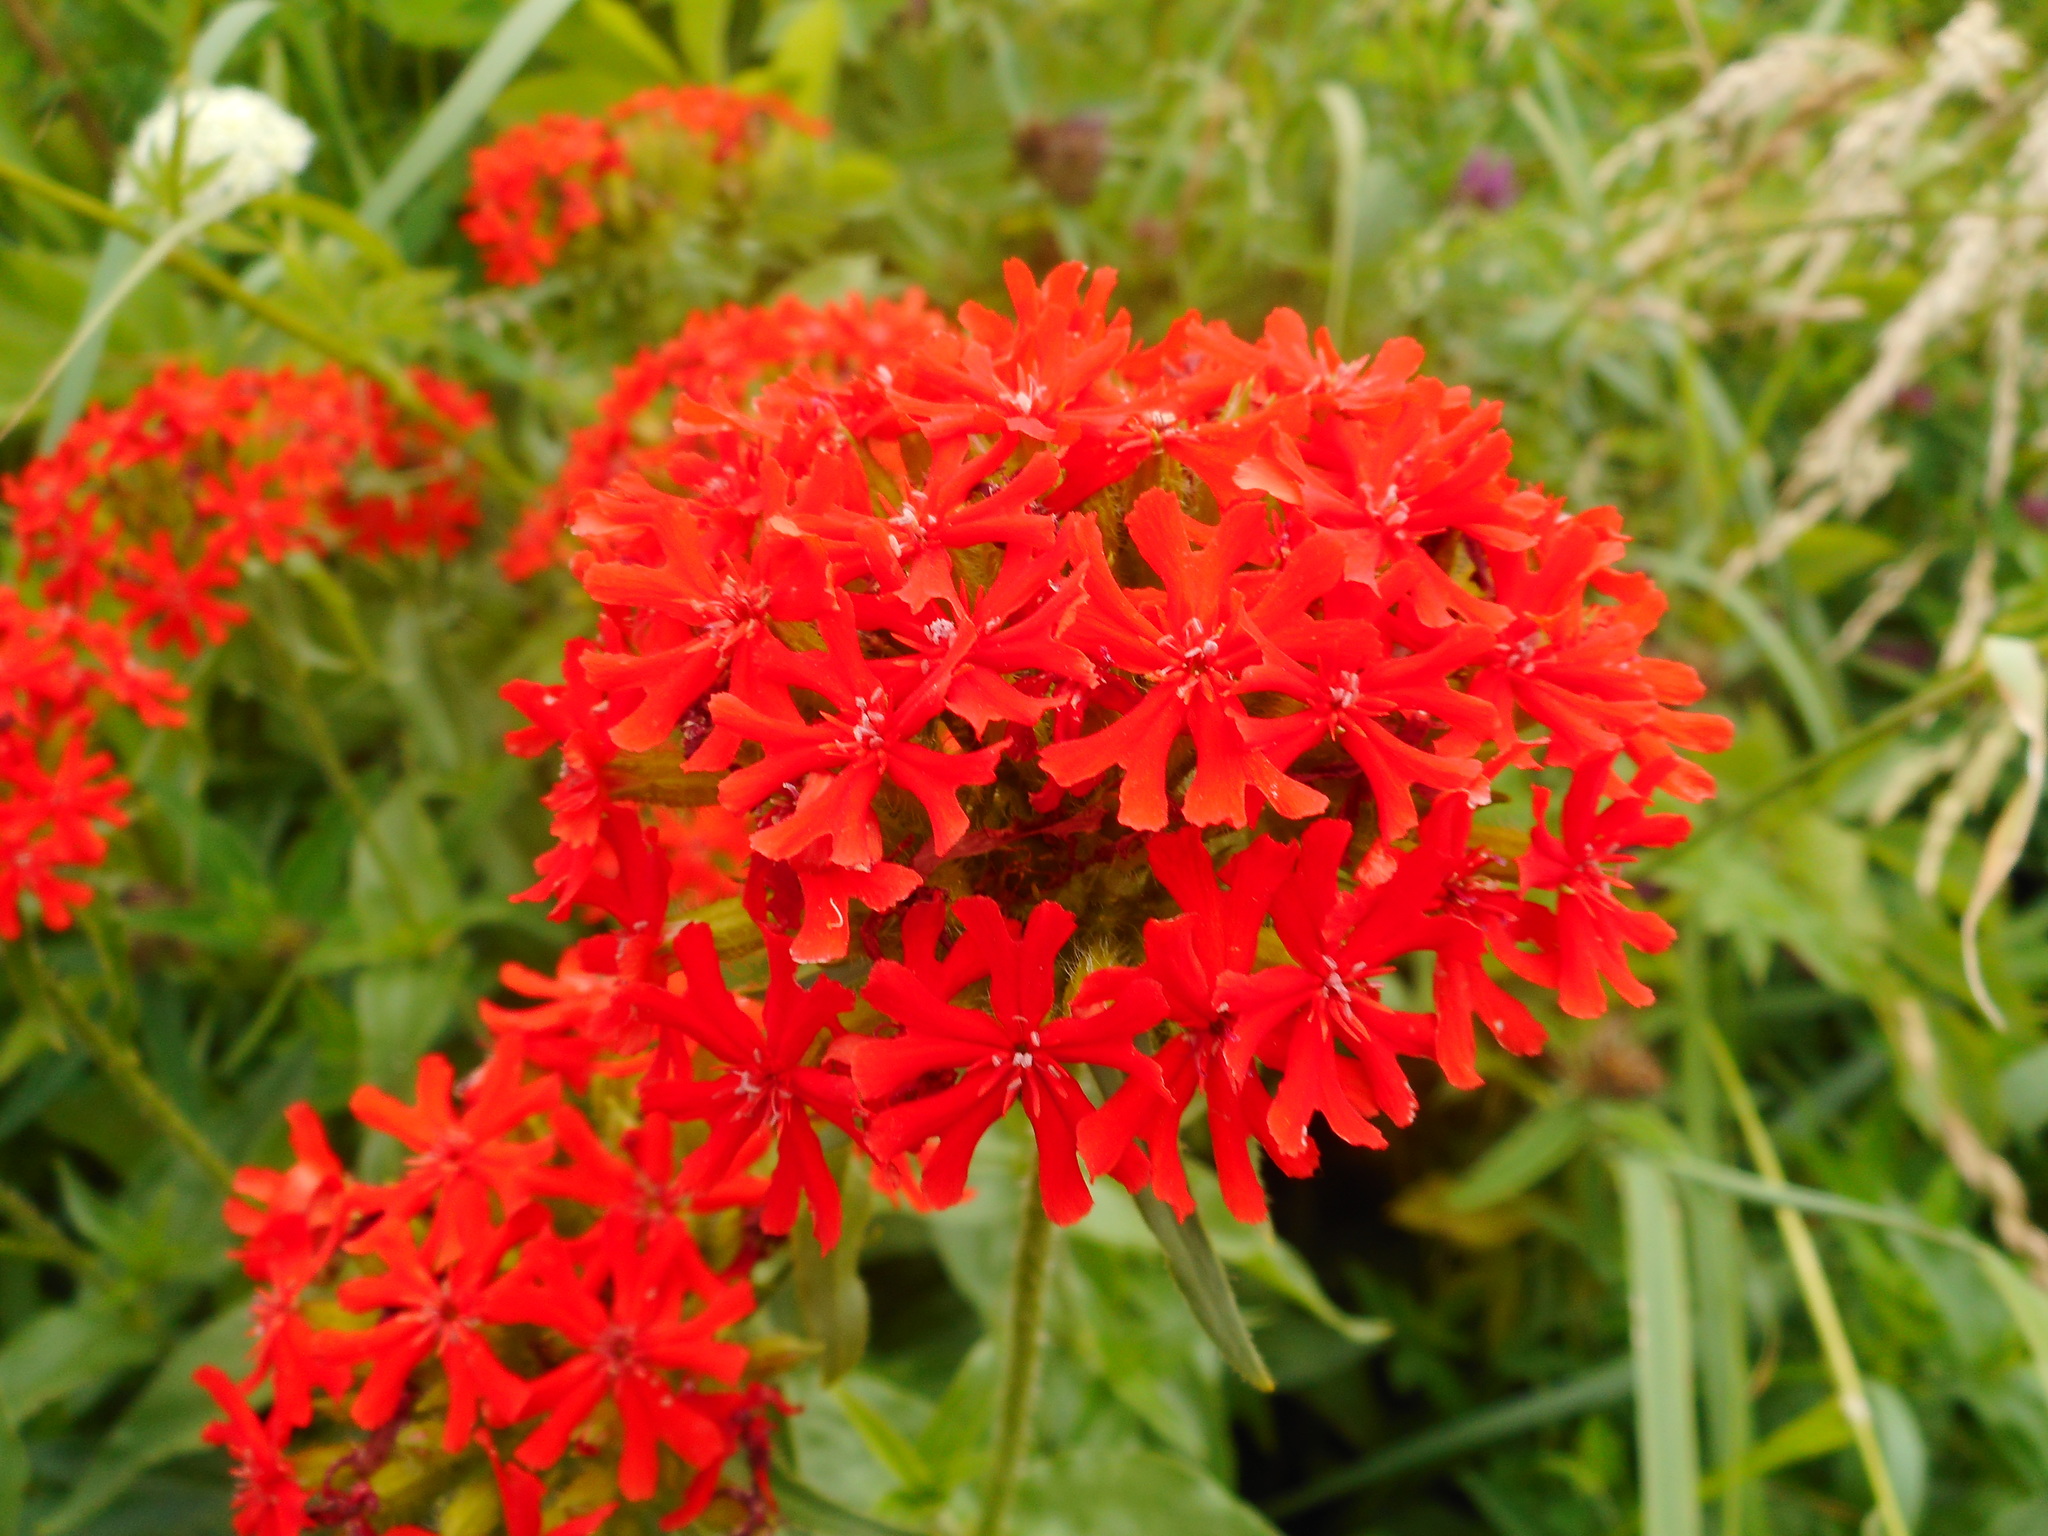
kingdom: Plantae
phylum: Tracheophyta
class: Magnoliopsida
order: Caryophyllales
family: Caryophyllaceae
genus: Silene
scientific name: Silene chalcedonica
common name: Maltese-cross
